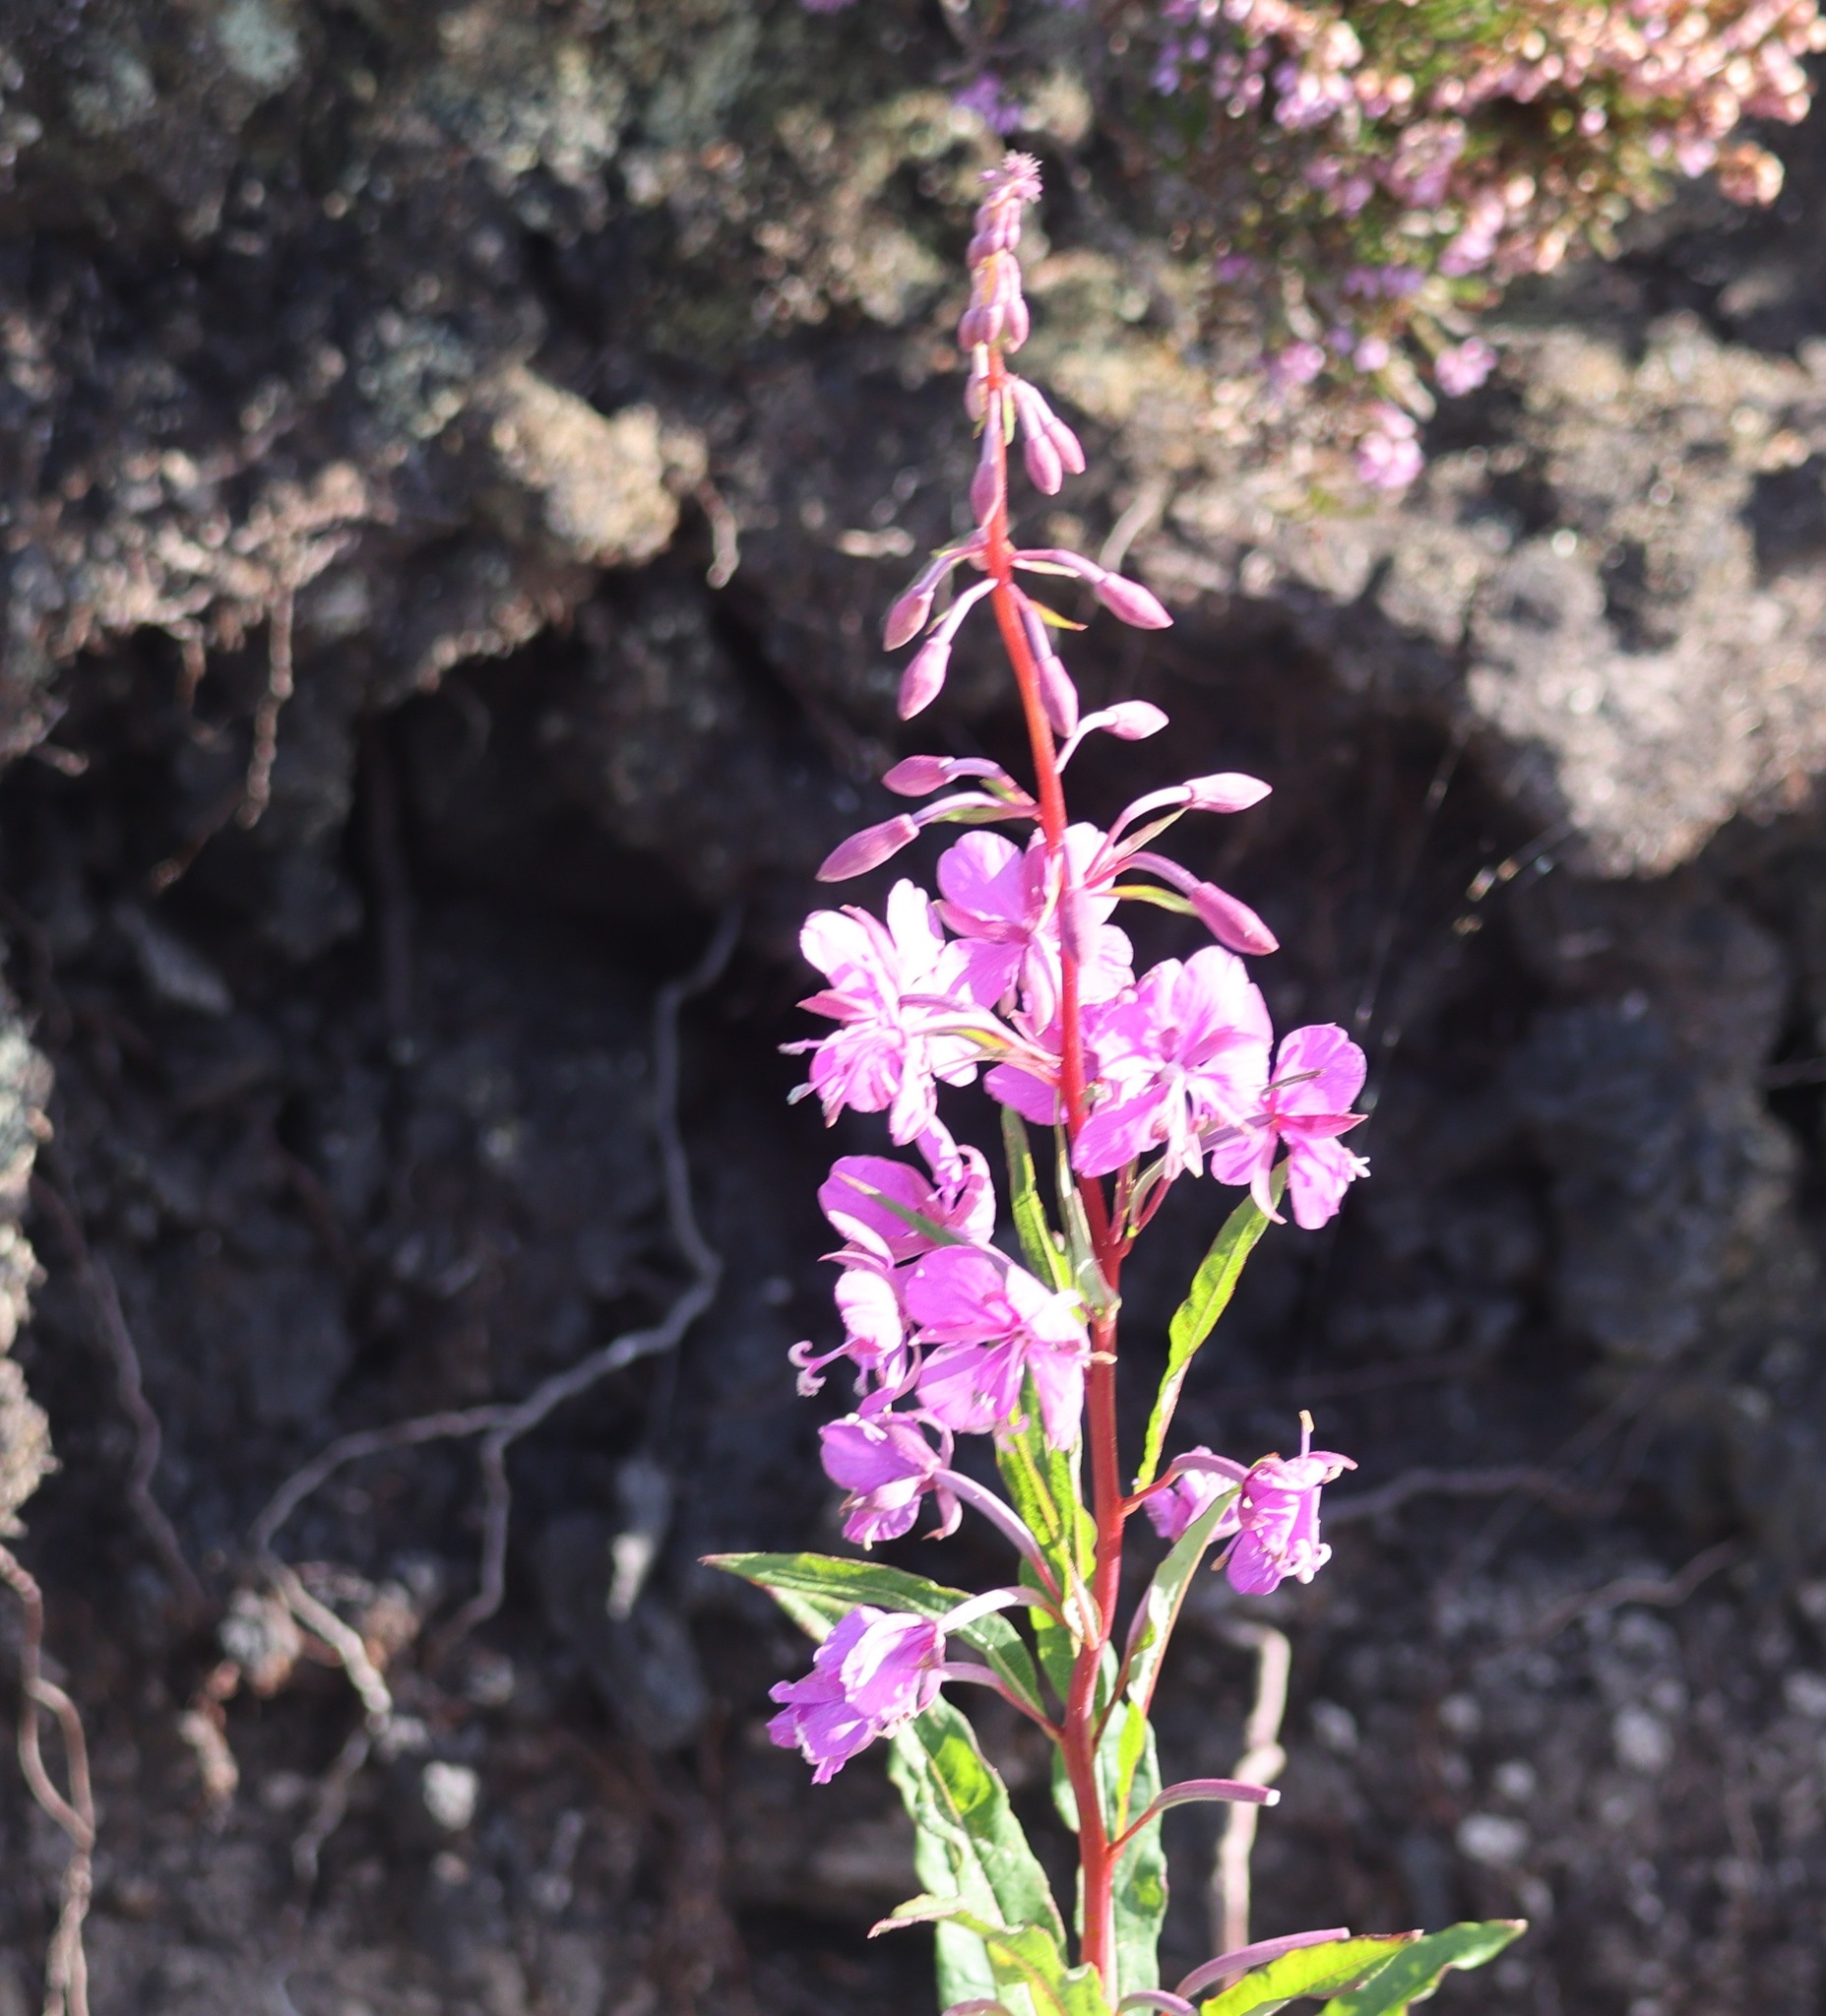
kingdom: Plantae
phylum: Tracheophyta
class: Magnoliopsida
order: Myrtales
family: Onagraceae
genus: Chamaenerion
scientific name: Chamaenerion angustifolium
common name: Fireweed
